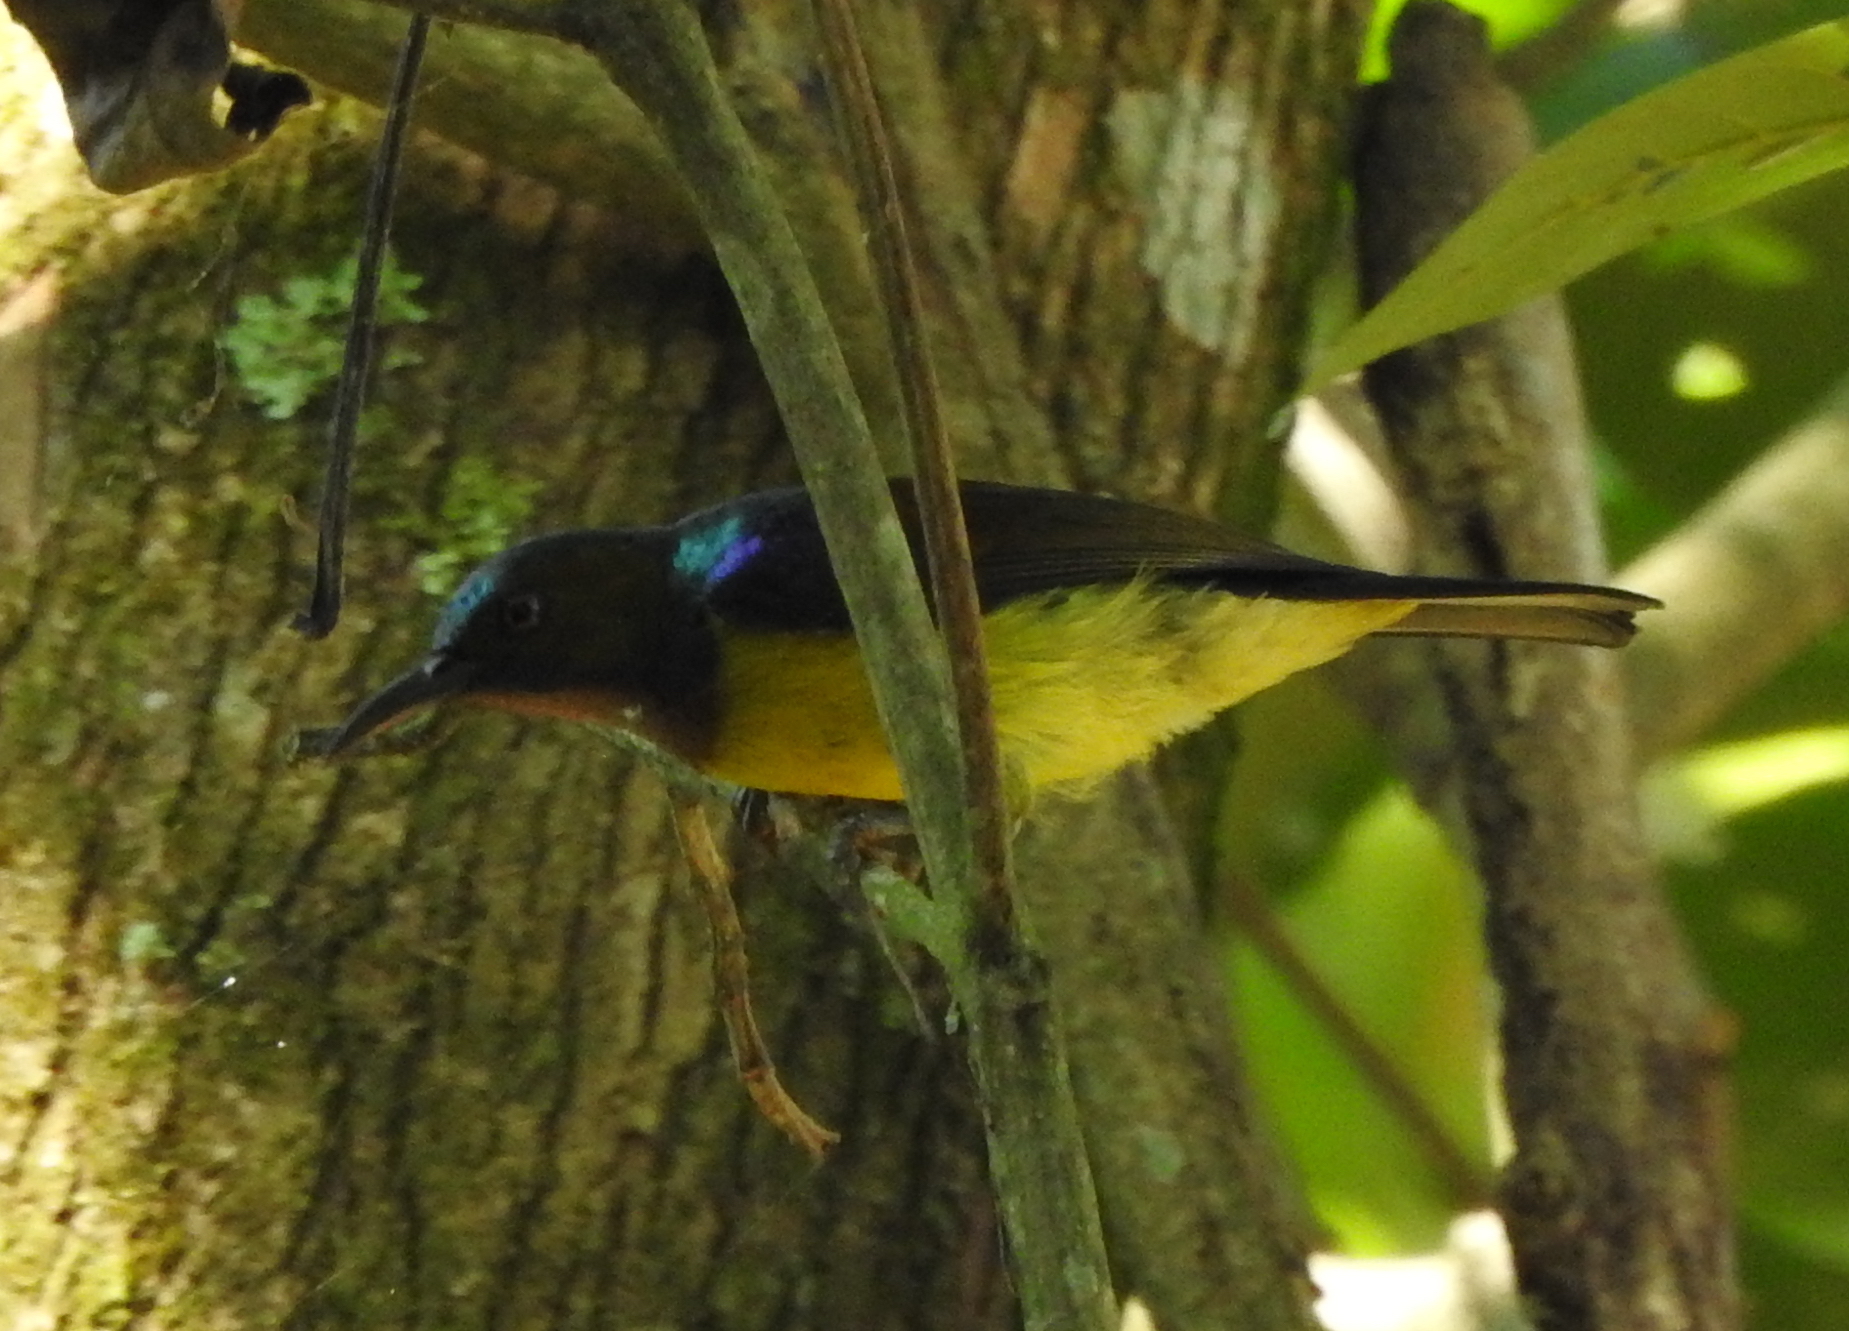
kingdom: Animalia
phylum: Chordata
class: Aves
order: Passeriformes
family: Nectariniidae
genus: Anthreptes
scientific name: Anthreptes malacensis
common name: Brown-throated sunbird
